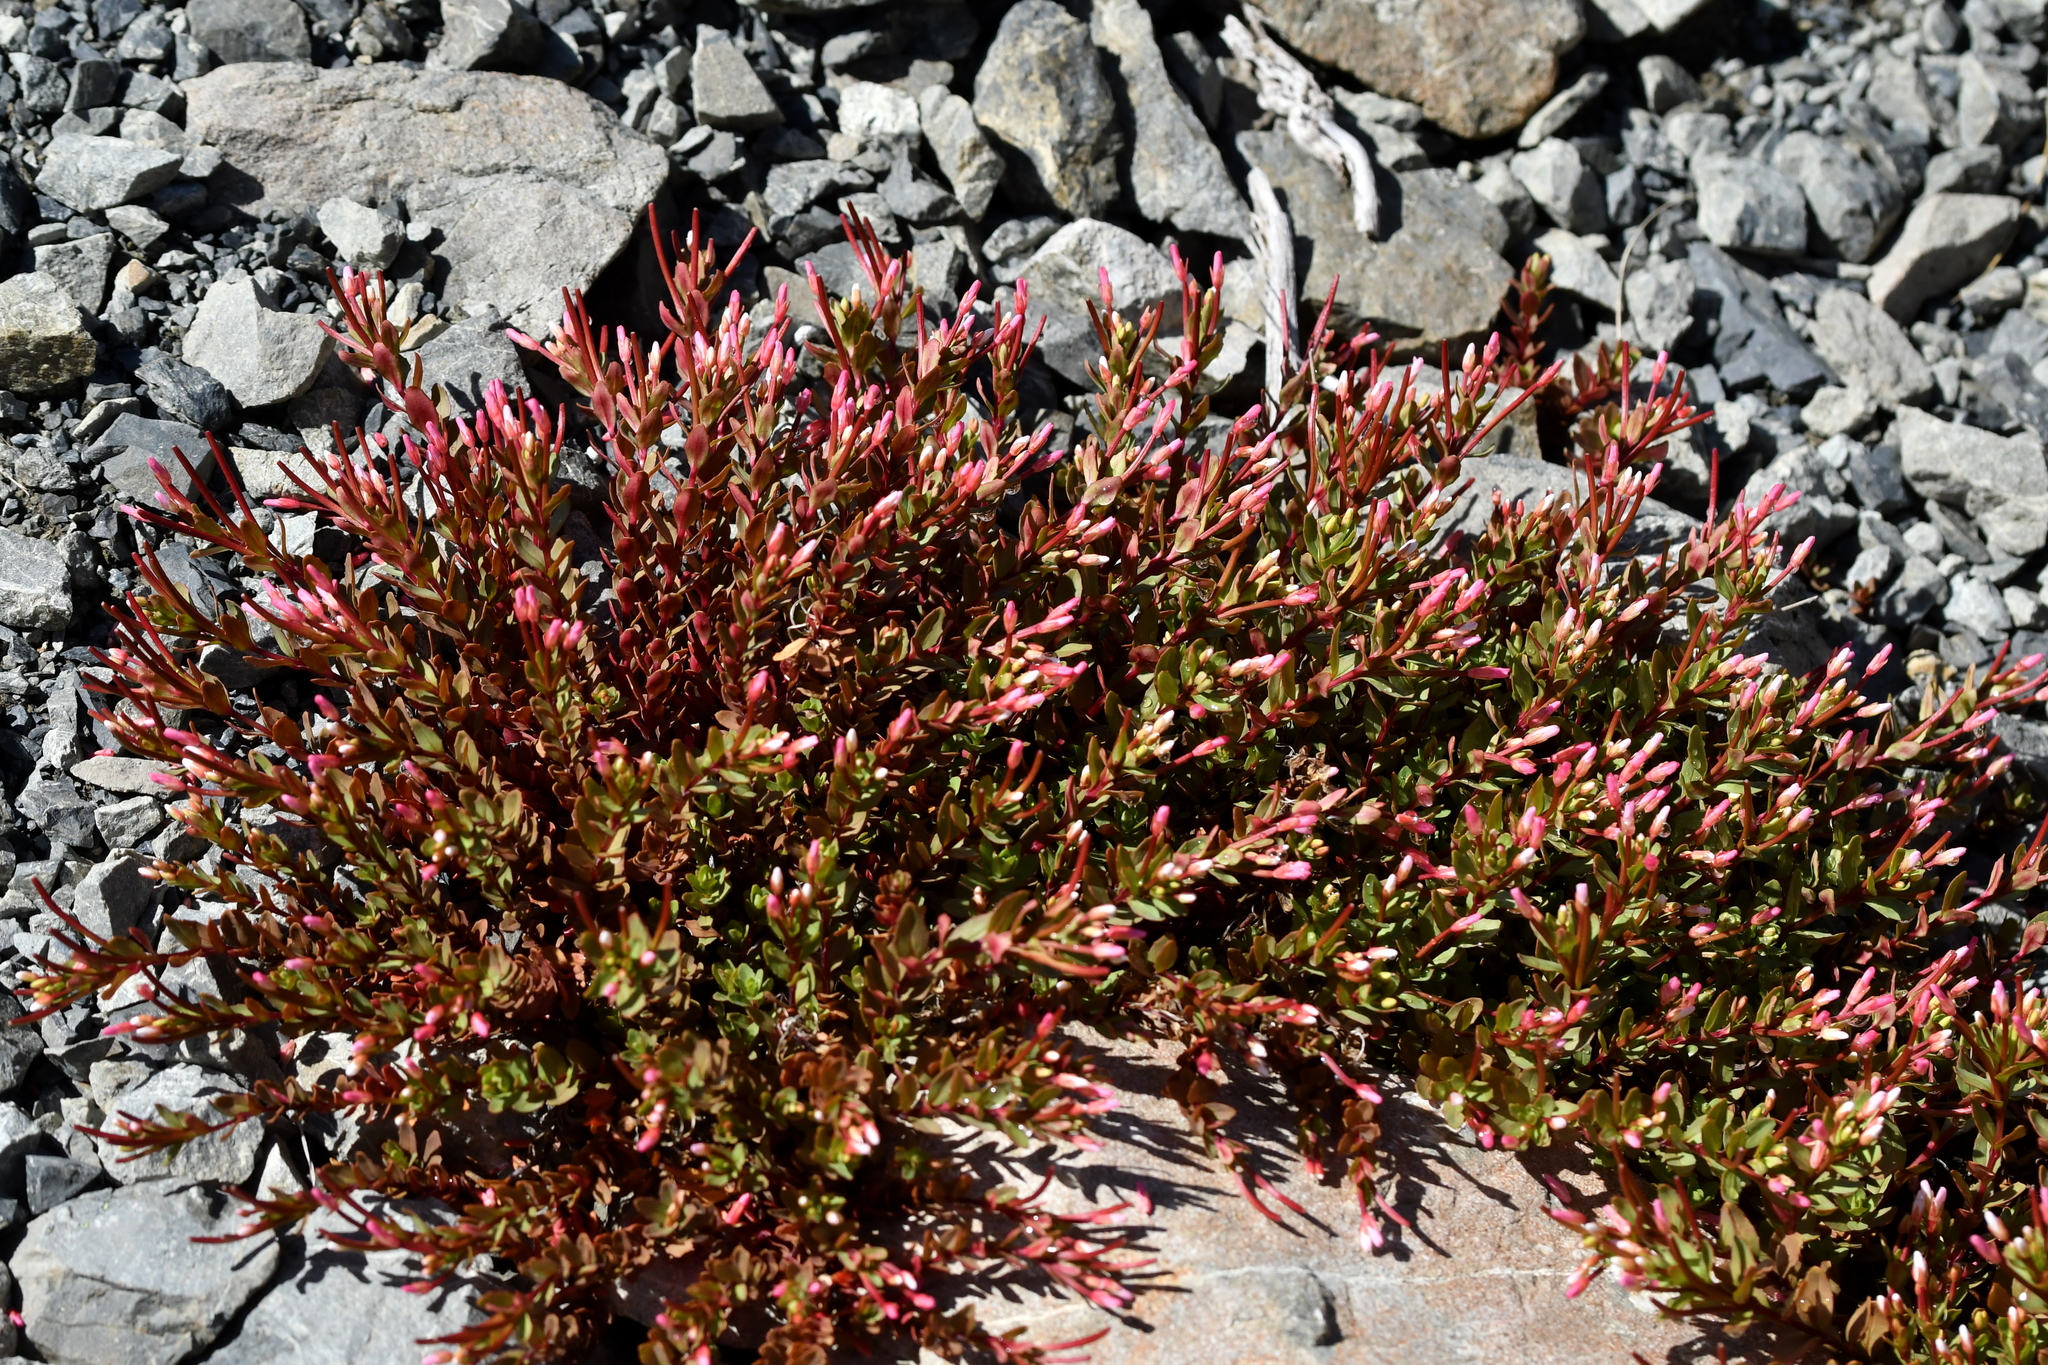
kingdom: Plantae
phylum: Tracheophyta
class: Magnoliopsida
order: Myrtales
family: Onagraceae
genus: Epilobium
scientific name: Epilobium porphyrium
